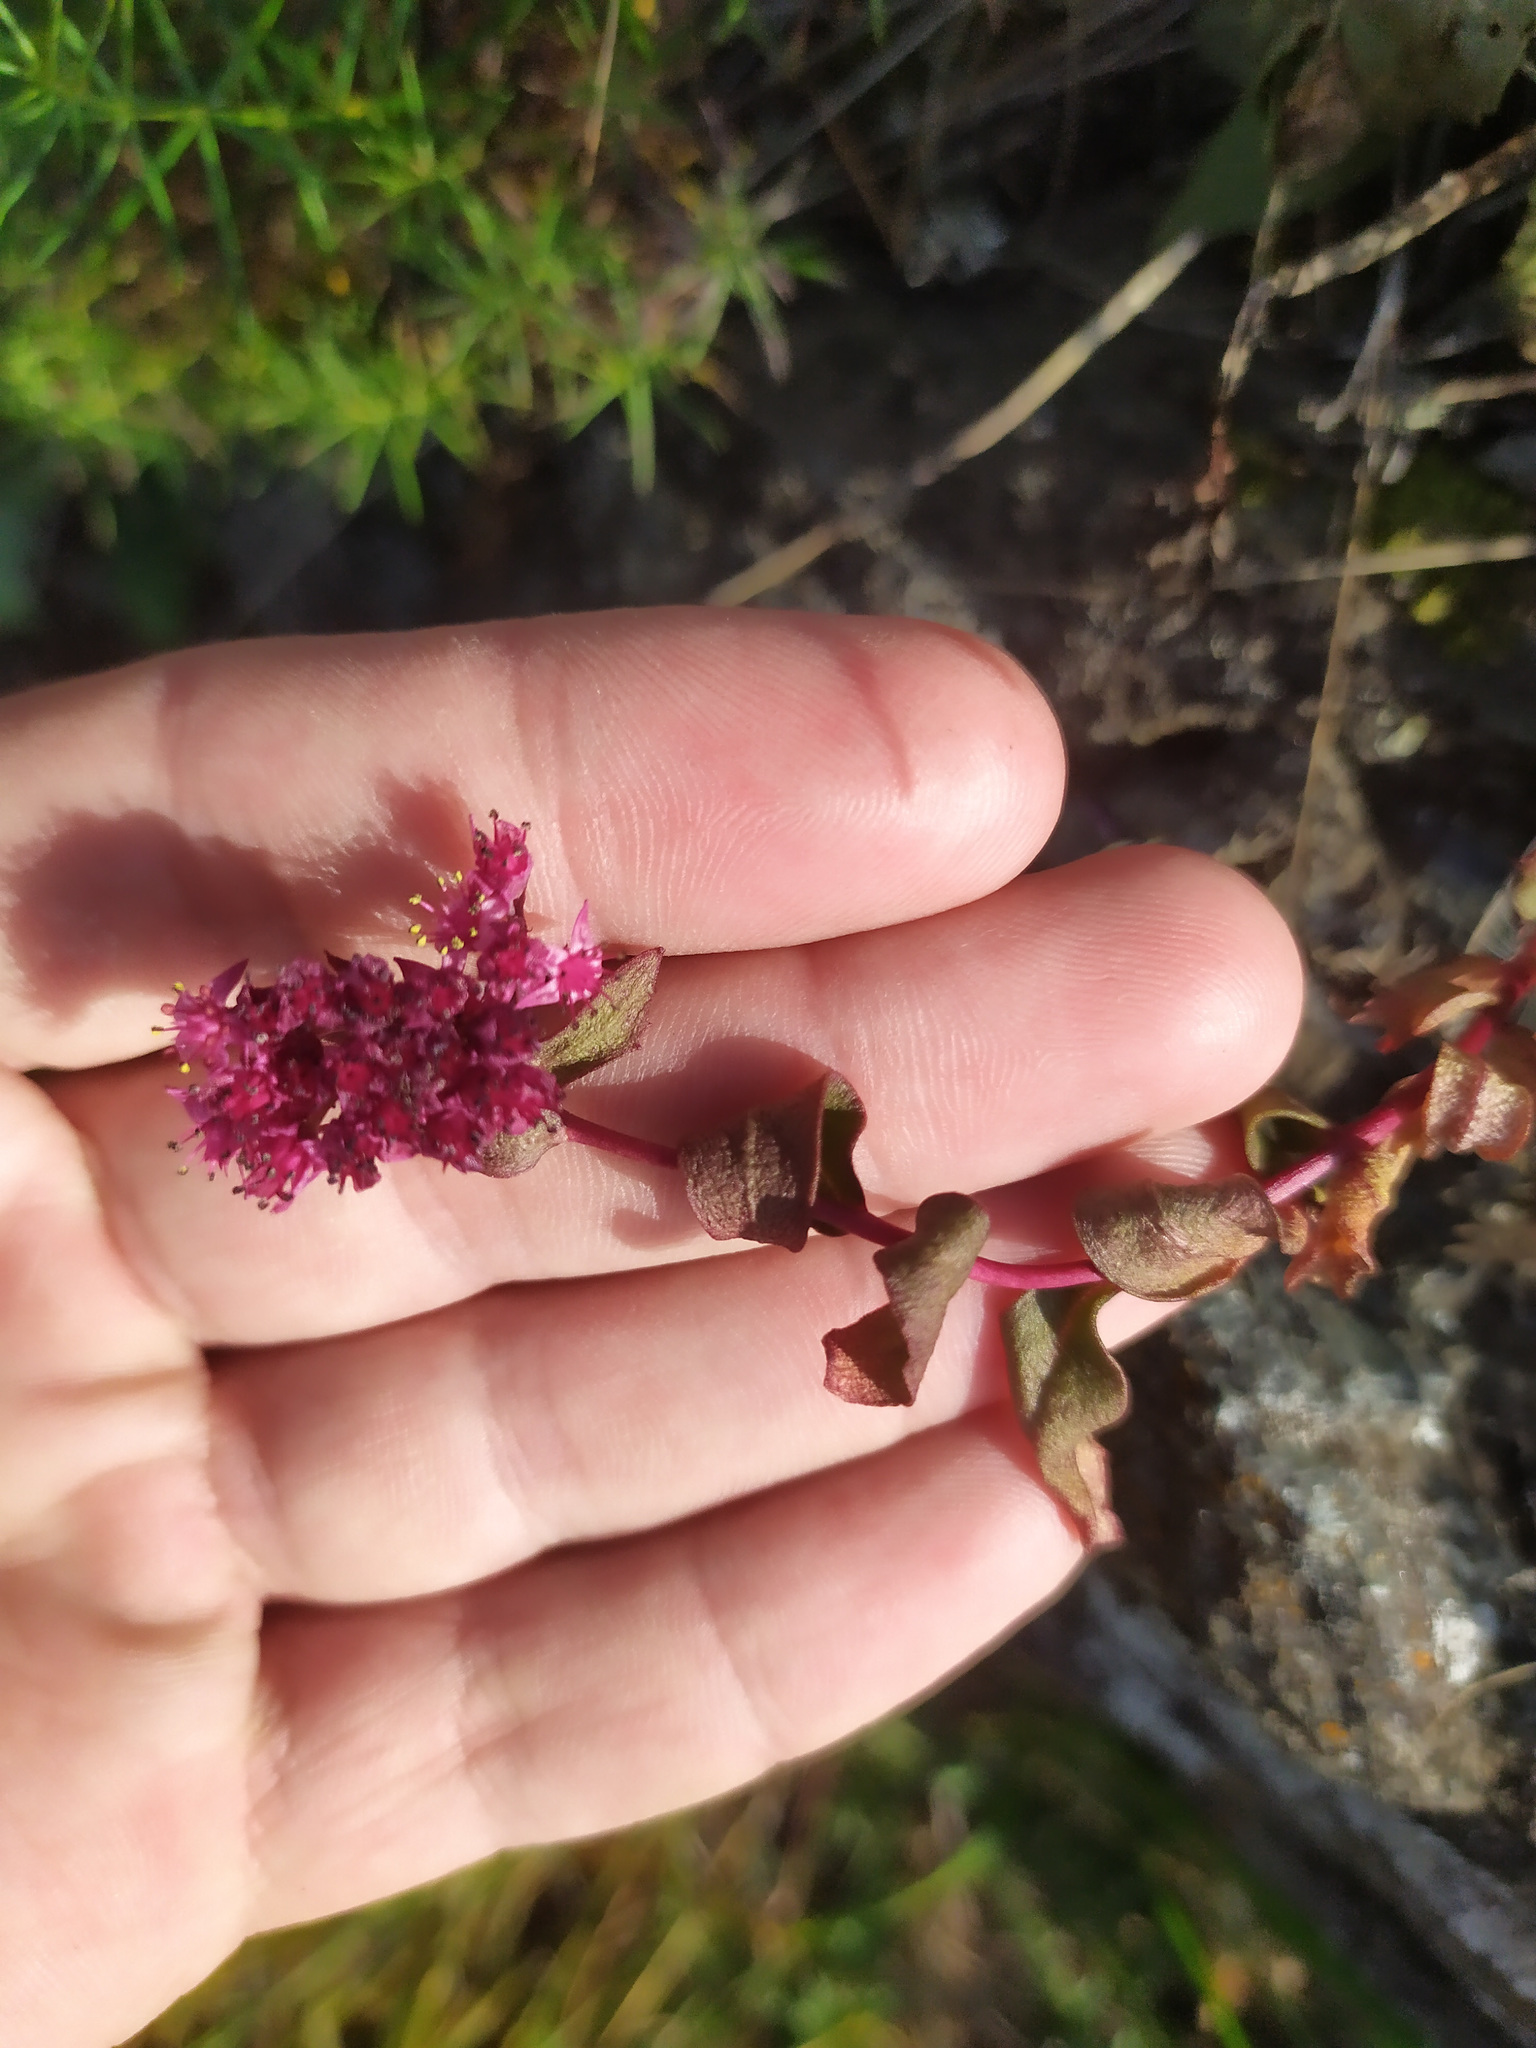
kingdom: Plantae
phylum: Tracheophyta
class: Magnoliopsida
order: Saxifragales
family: Crassulaceae
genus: Hylotelephium
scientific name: Hylotelephium telephium
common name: Live-forever
